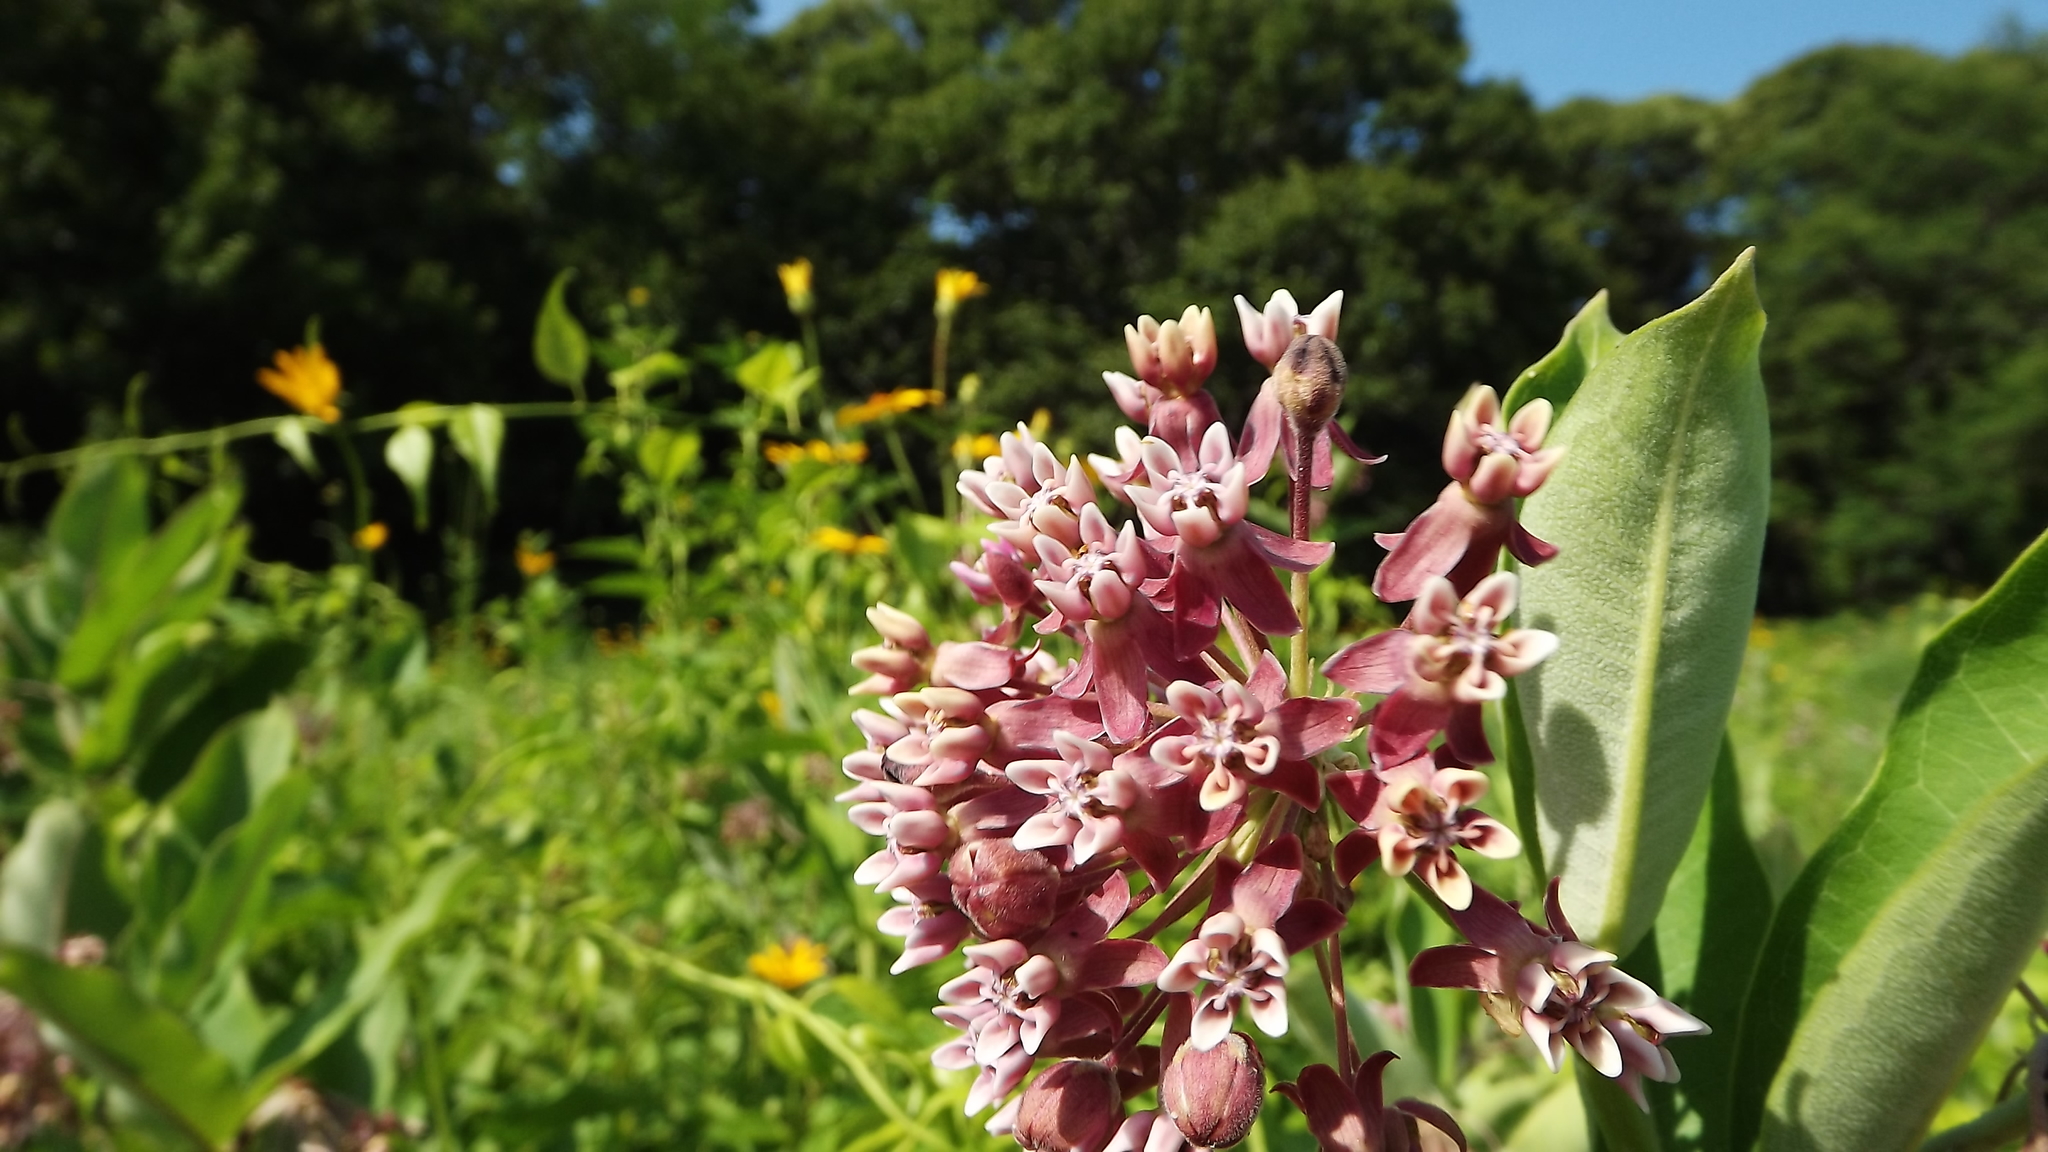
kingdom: Plantae
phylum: Tracheophyta
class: Magnoliopsida
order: Gentianales
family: Apocynaceae
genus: Asclepias
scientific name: Asclepias syriaca
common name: Common milkweed
